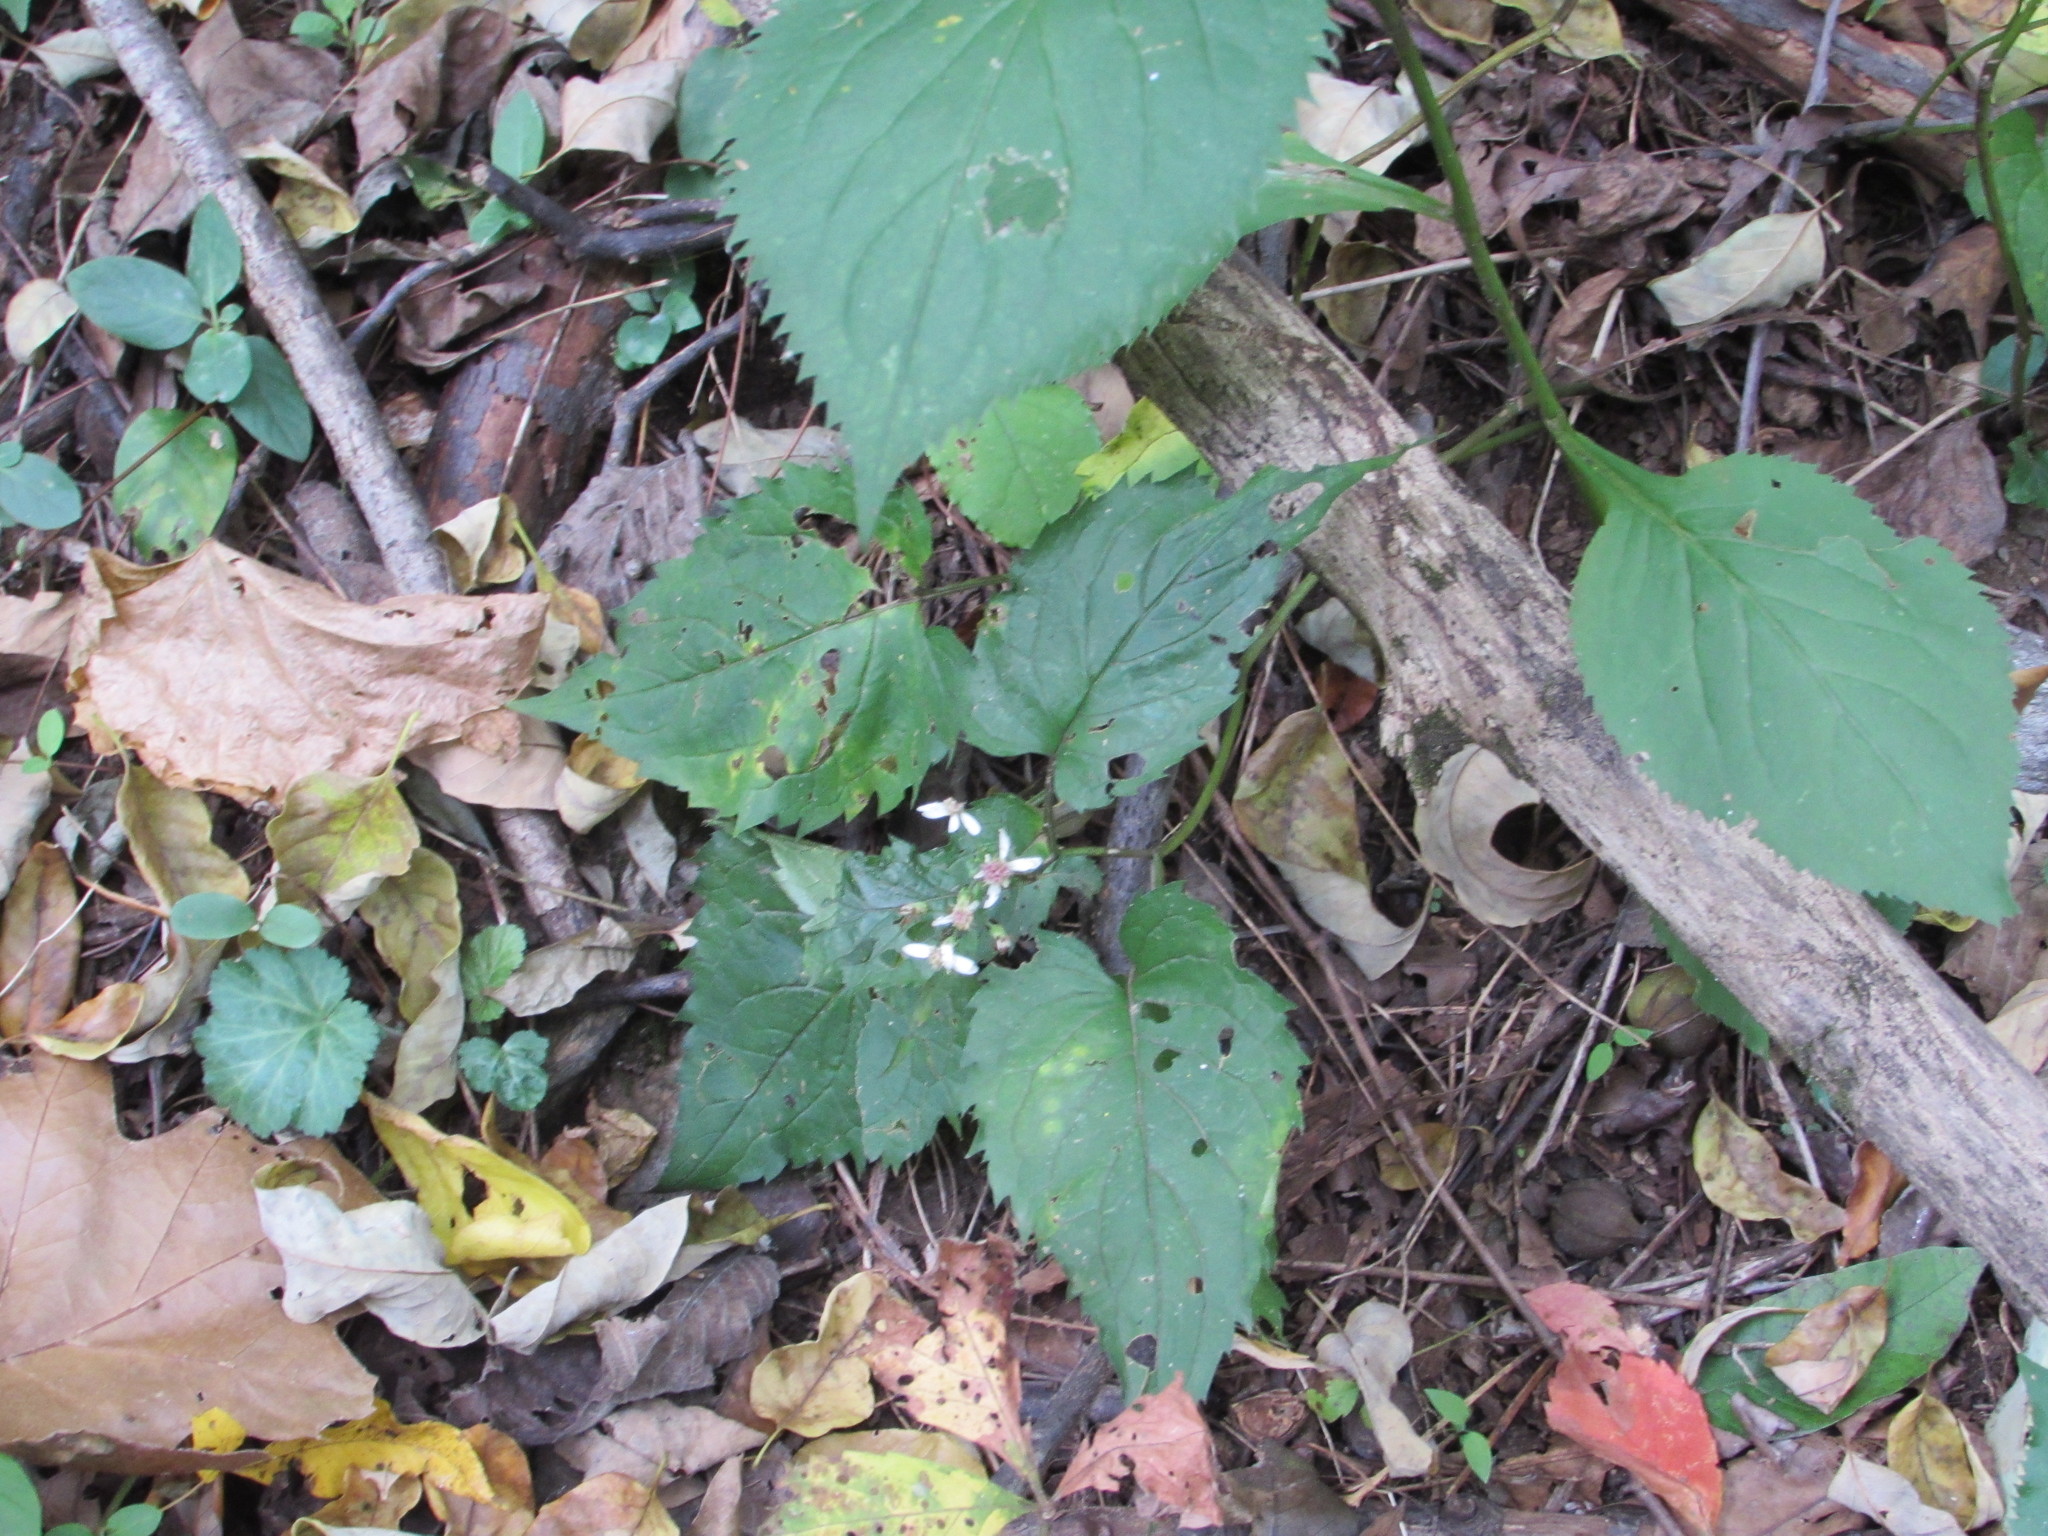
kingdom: Plantae
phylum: Tracheophyta
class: Magnoliopsida
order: Asterales
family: Asteraceae
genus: Eurybia
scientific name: Eurybia divaricata
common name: White wood aster
